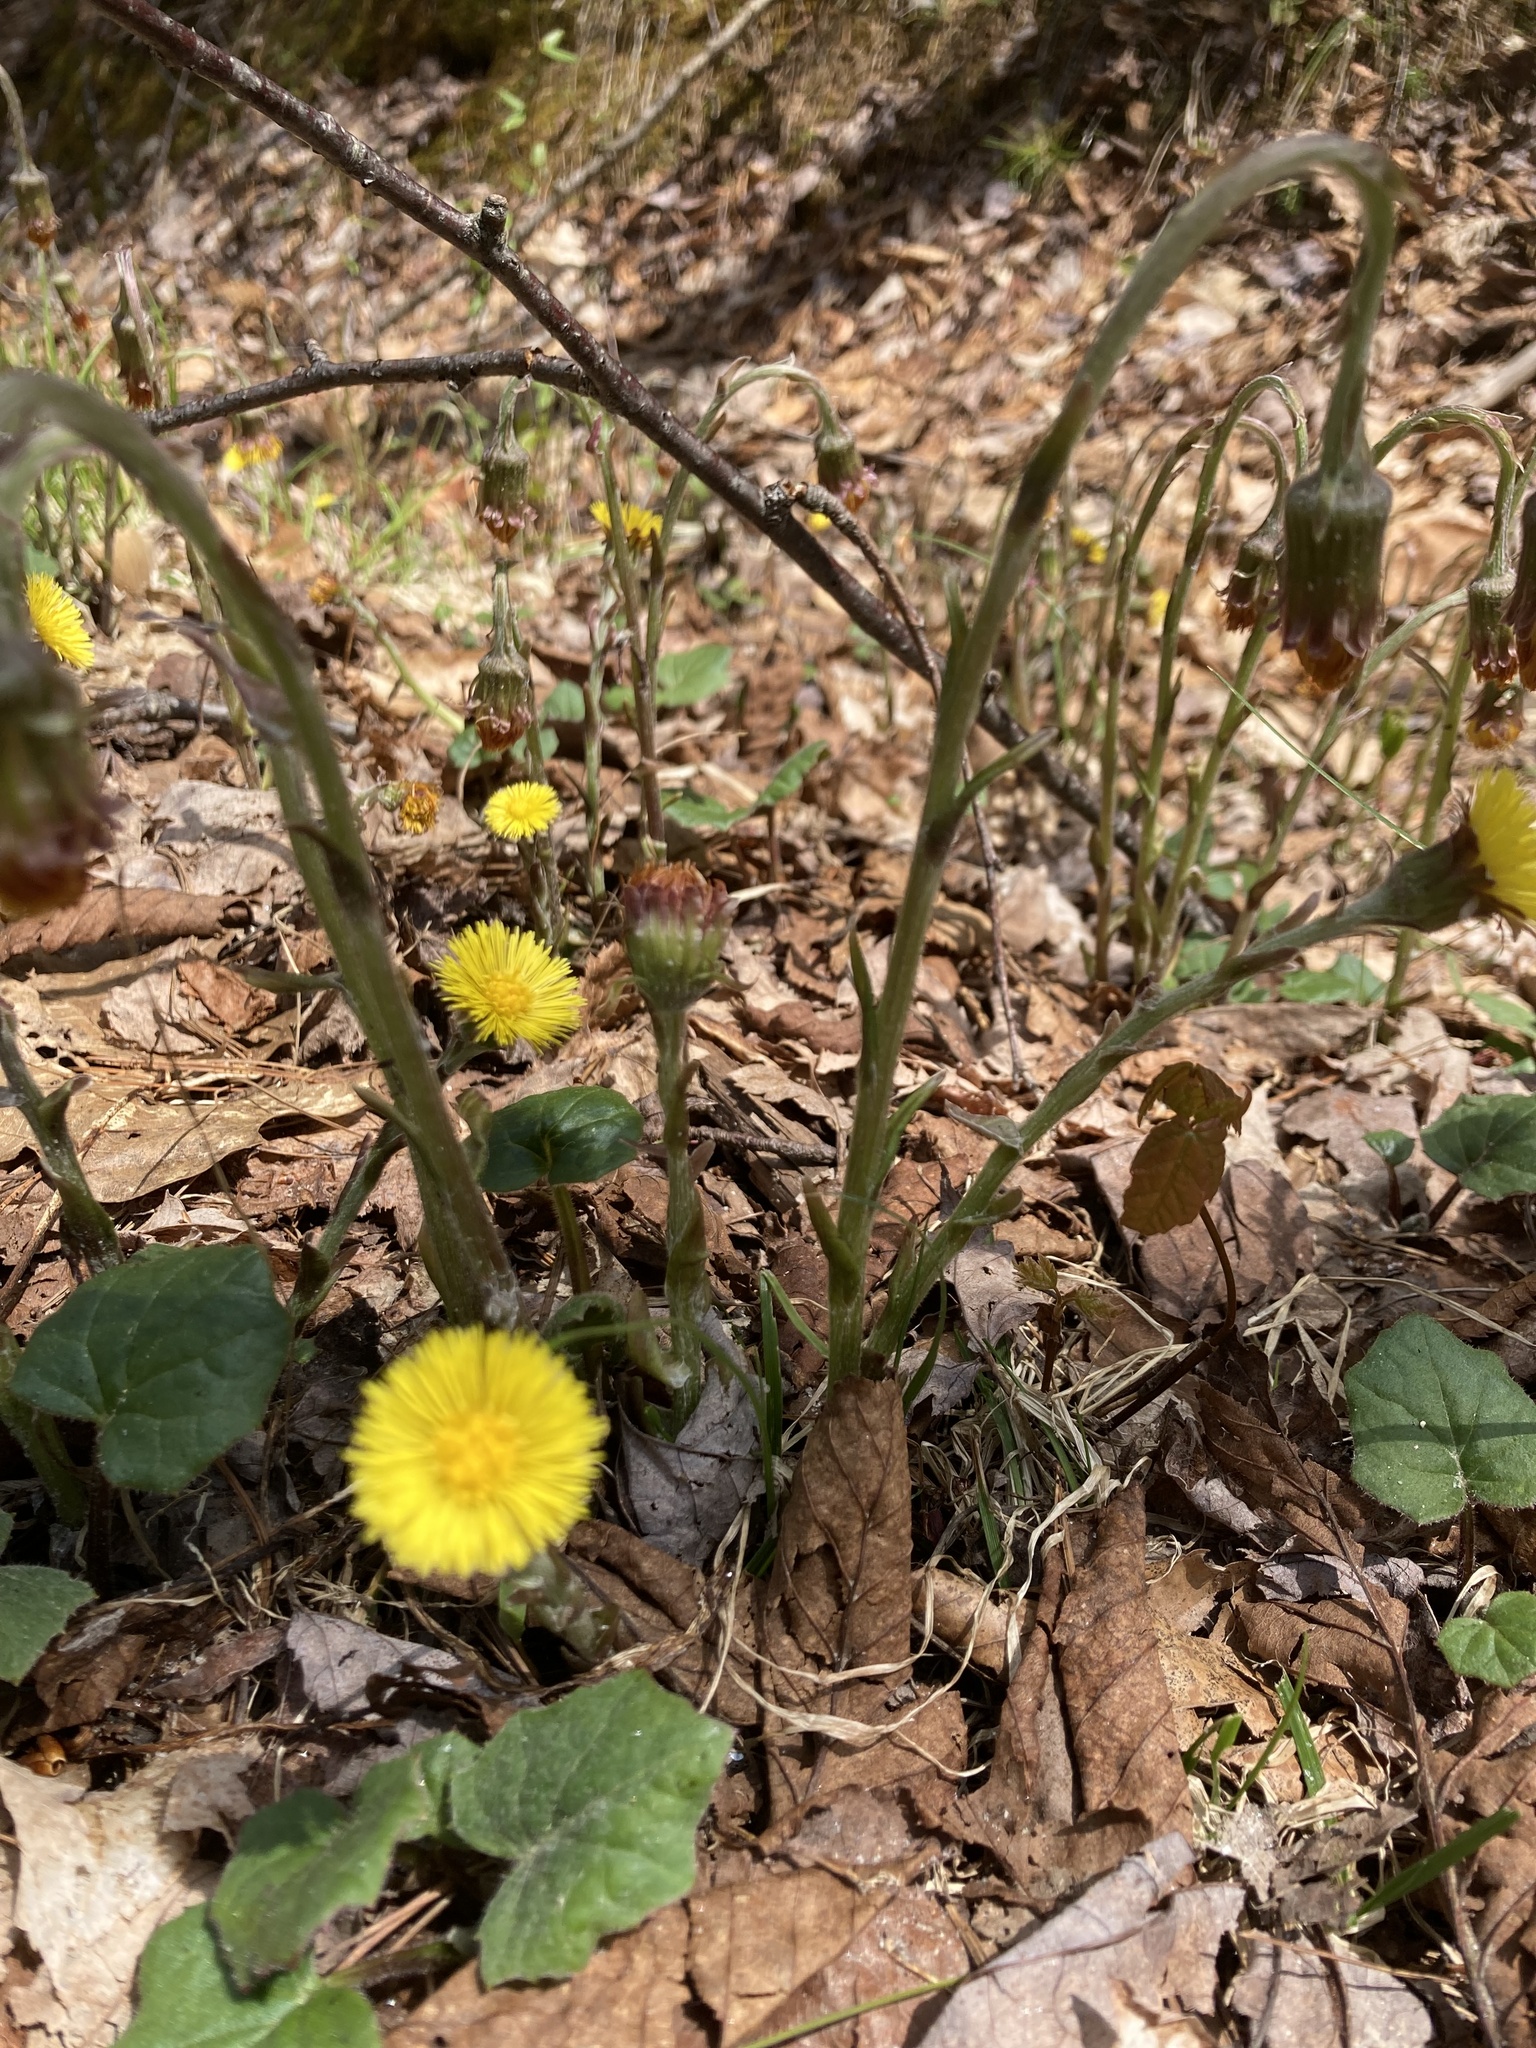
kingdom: Plantae
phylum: Tracheophyta
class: Magnoliopsida
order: Asterales
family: Asteraceae
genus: Tussilago
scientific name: Tussilago farfara
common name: Coltsfoot
